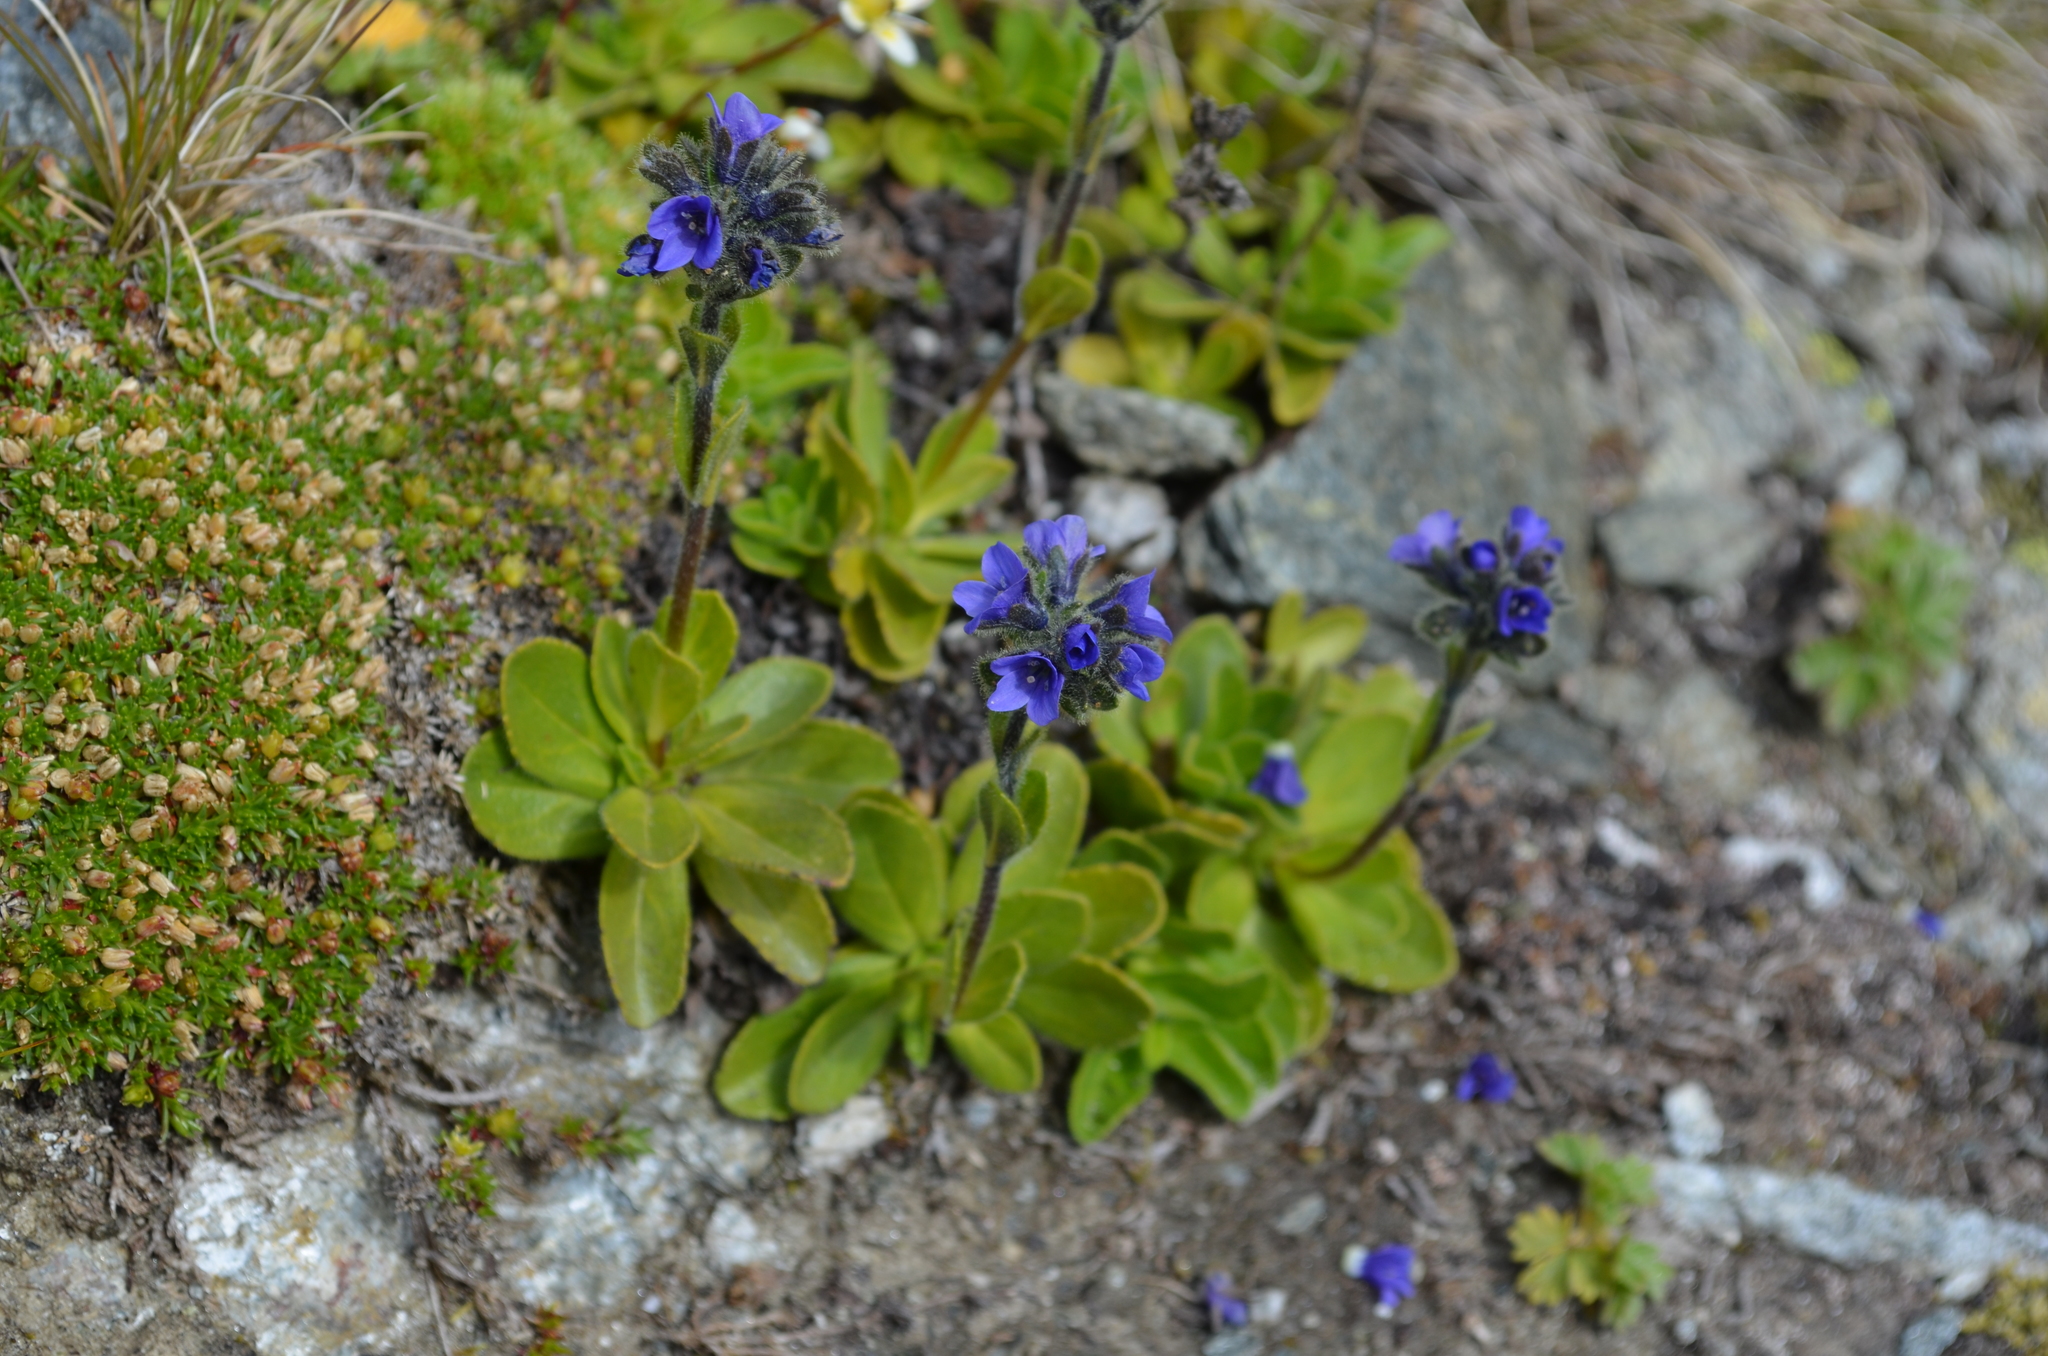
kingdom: Plantae
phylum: Tracheophyta
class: Magnoliopsida
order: Lamiales
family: Plantaginaceae
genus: Veronica
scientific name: Veronica bellidioides
